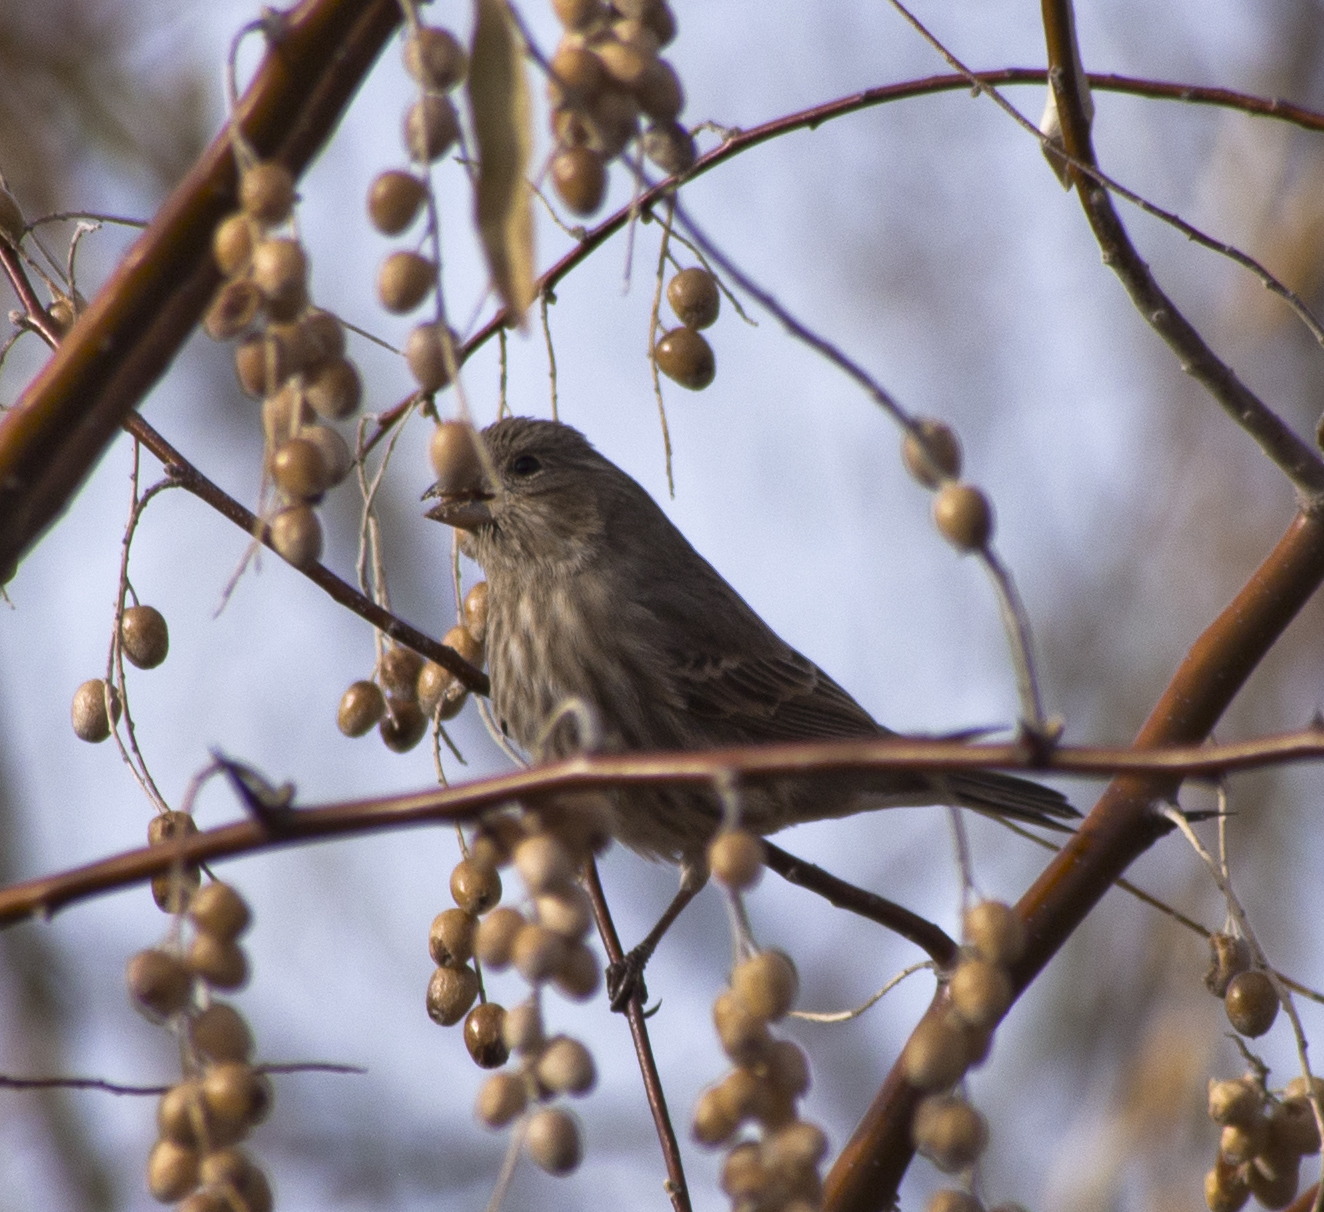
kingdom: Animalia
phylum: Chordata
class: Aves
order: Passeriformes
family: Fringillidae
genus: Haemorhous
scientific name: Haemorhous mexicanus
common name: House finch
